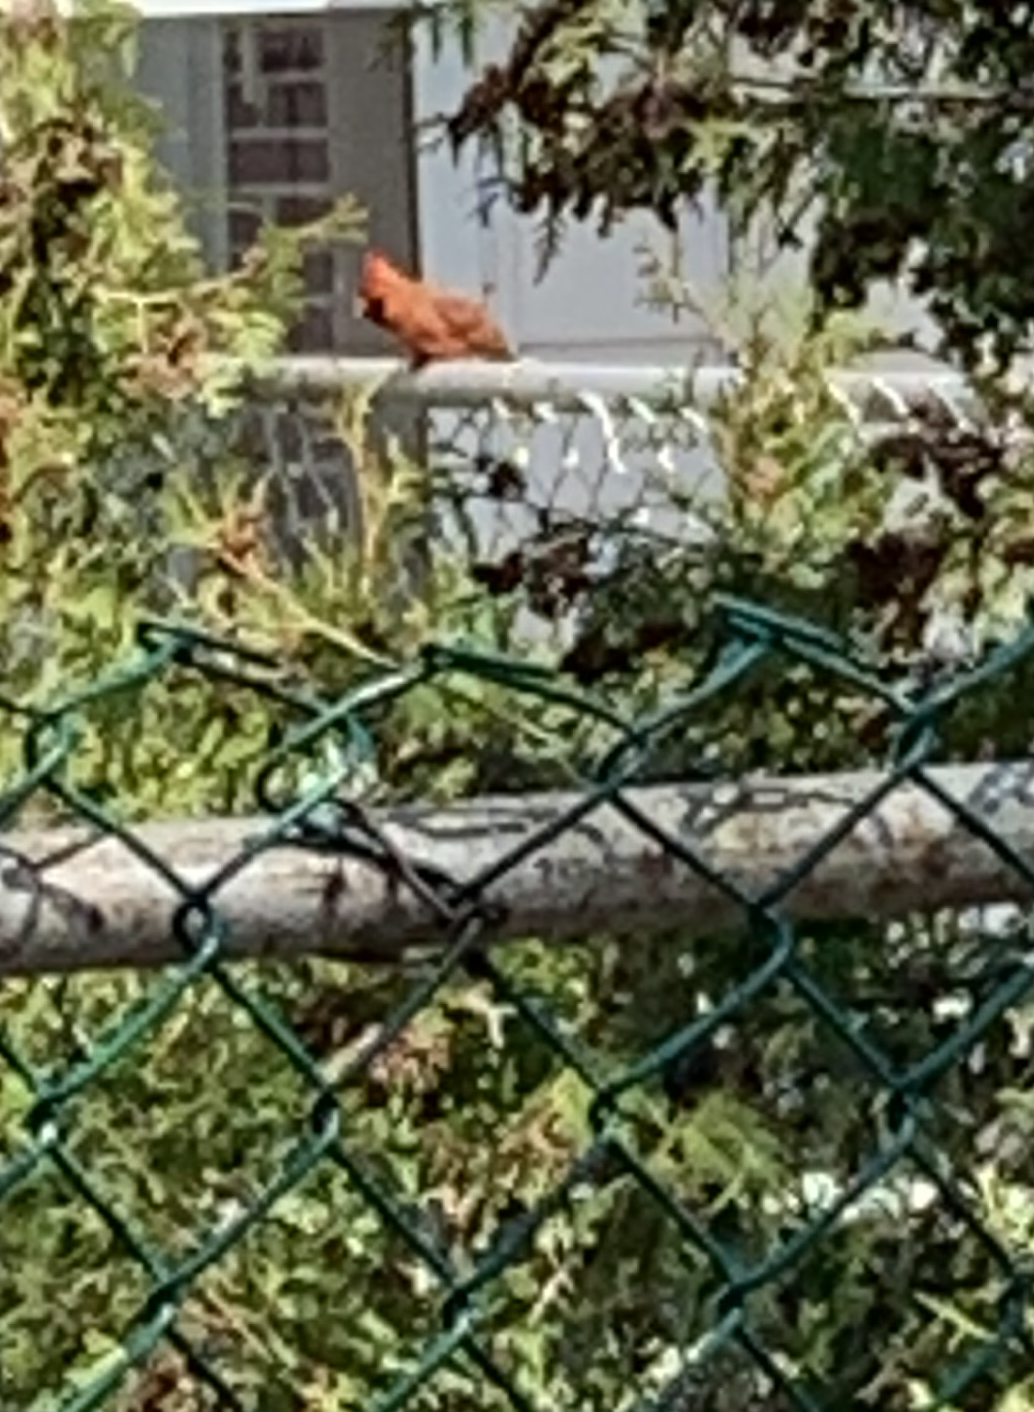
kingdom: Animalia
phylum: Chordata
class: Aves
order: Passeriformes
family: Cardinalidae
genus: Cardinalis
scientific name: Cardinalis cardinalis
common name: Northern cardinal
